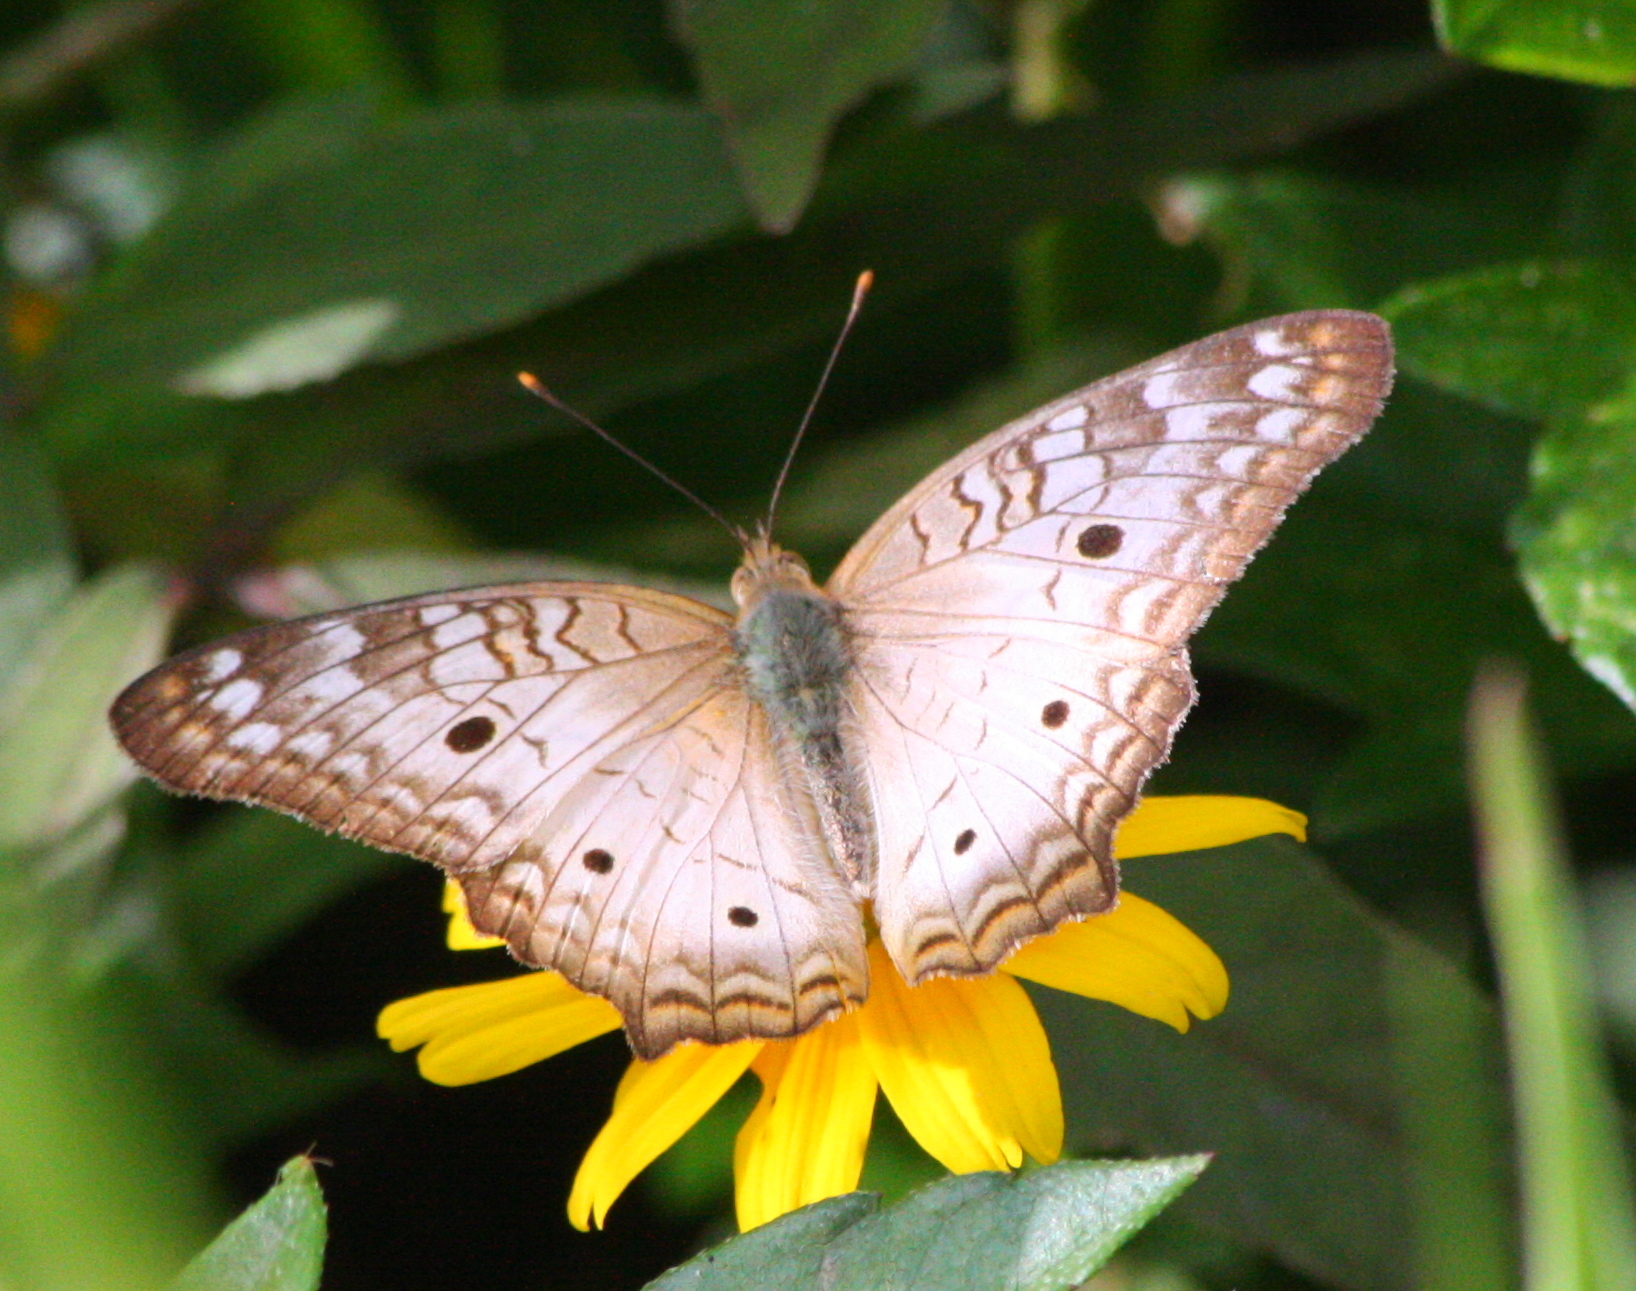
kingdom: Animalia
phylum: Arthropoda
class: Insecta
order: Lepidoptera
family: Nymphalidae
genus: Anartia
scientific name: Anartia jatrophae
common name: White peacock
